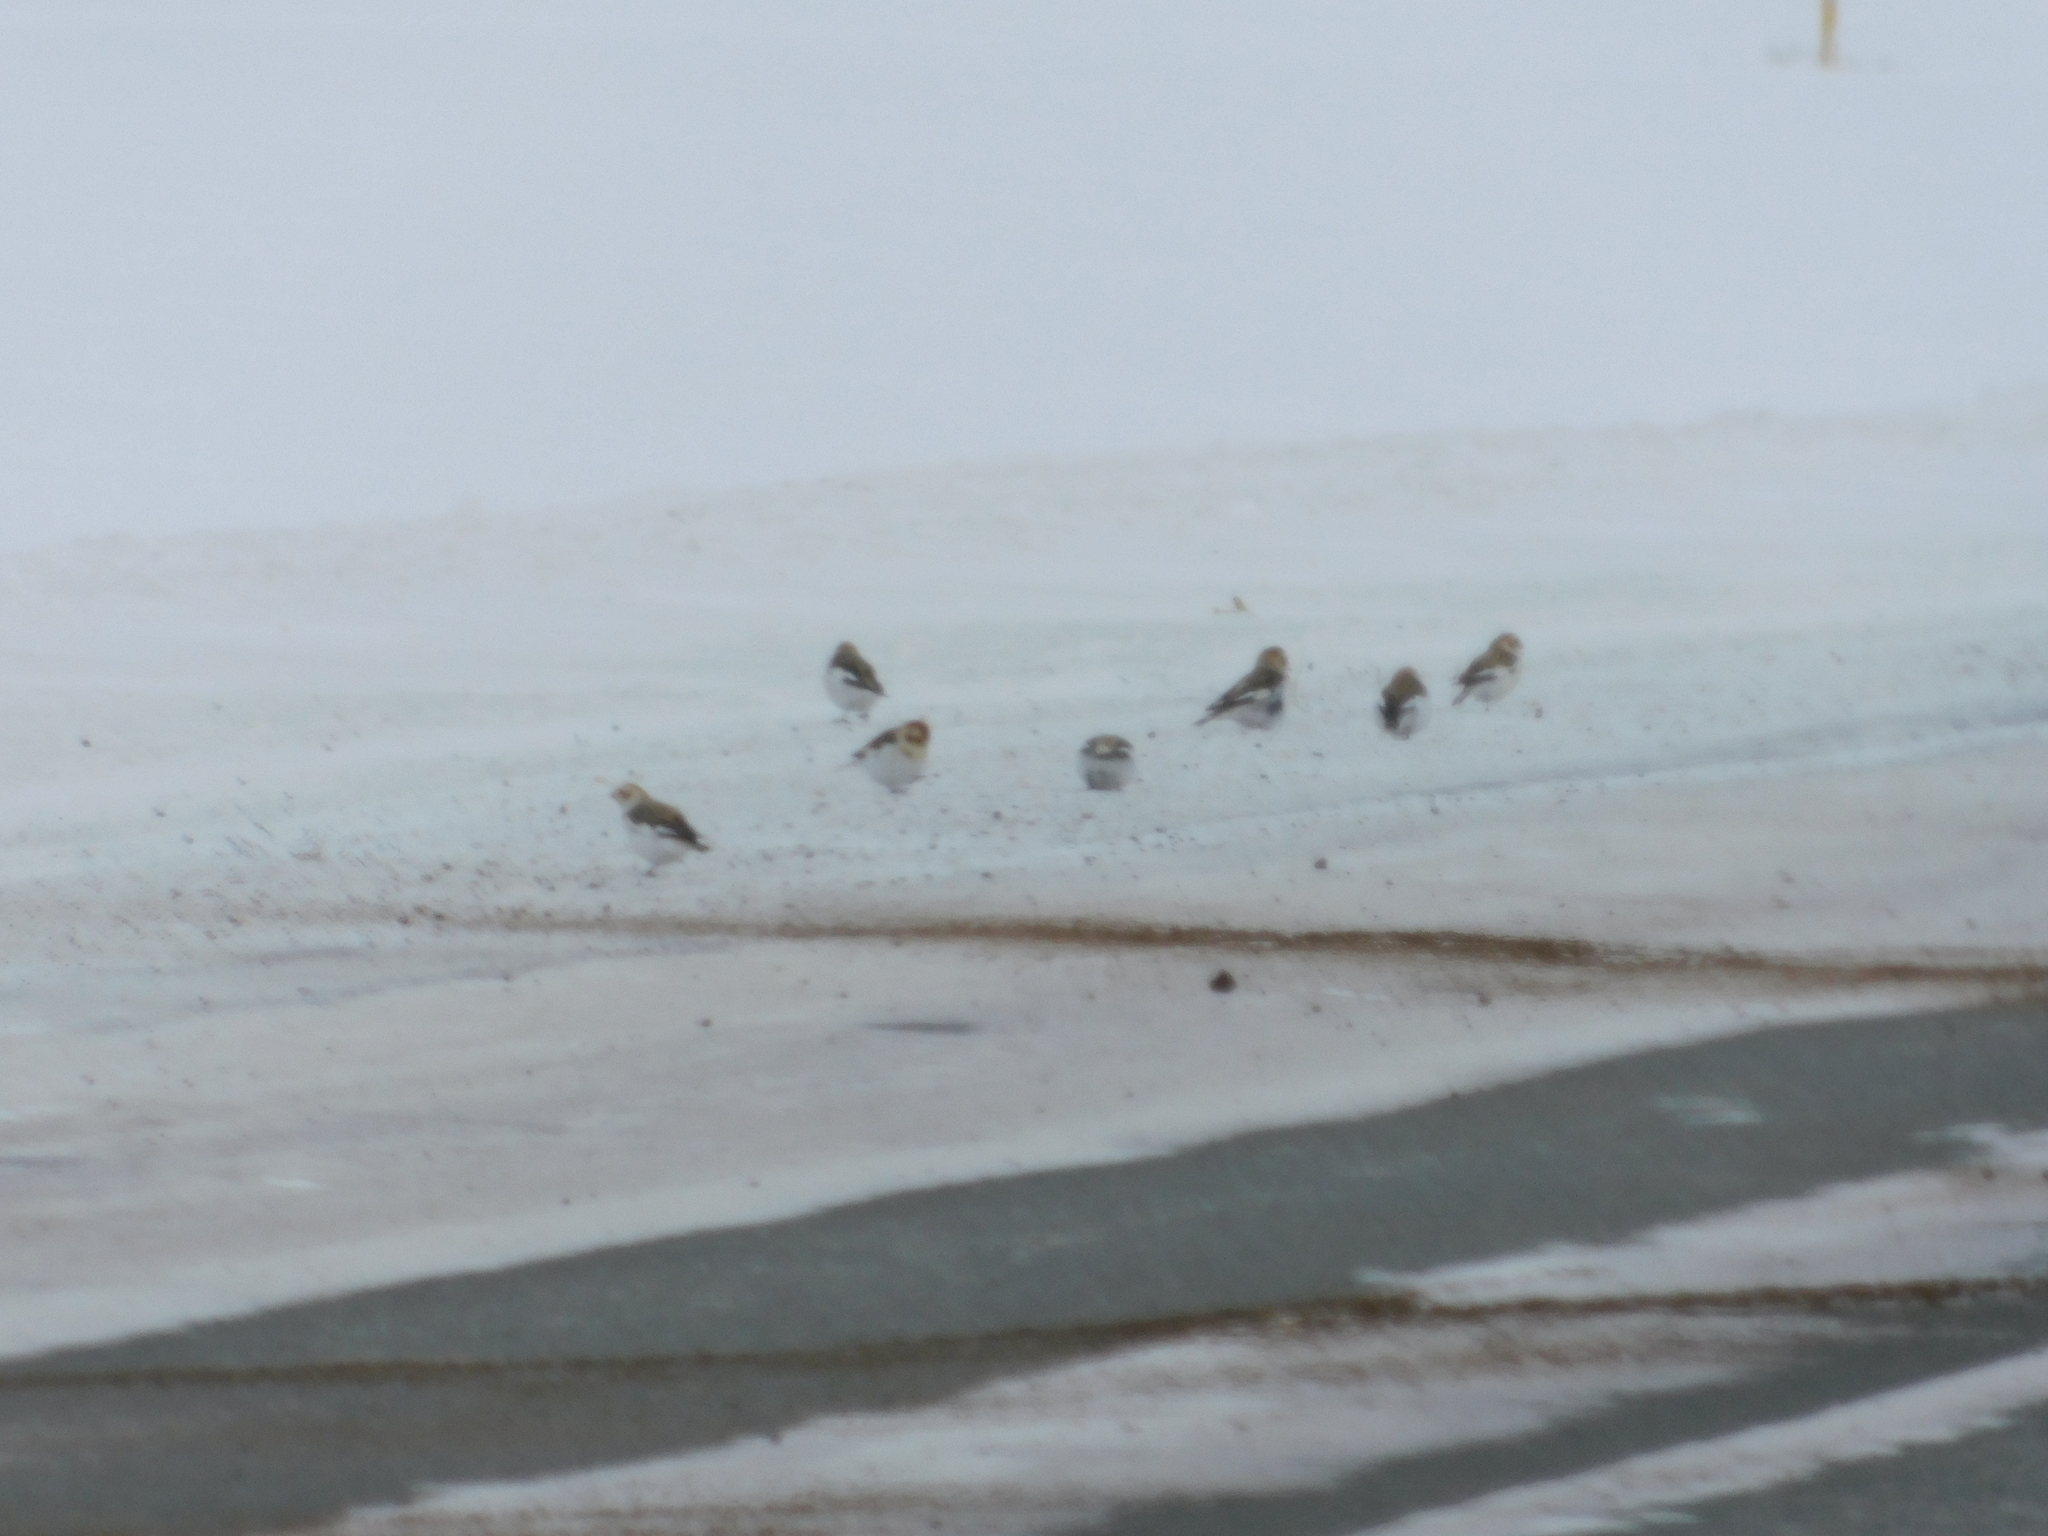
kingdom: Animalia
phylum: Chordata
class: Aves
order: Passeriformes
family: Calcariidae
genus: Plectrophenax
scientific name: Plectrophenax nivalis
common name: Snow bunting
